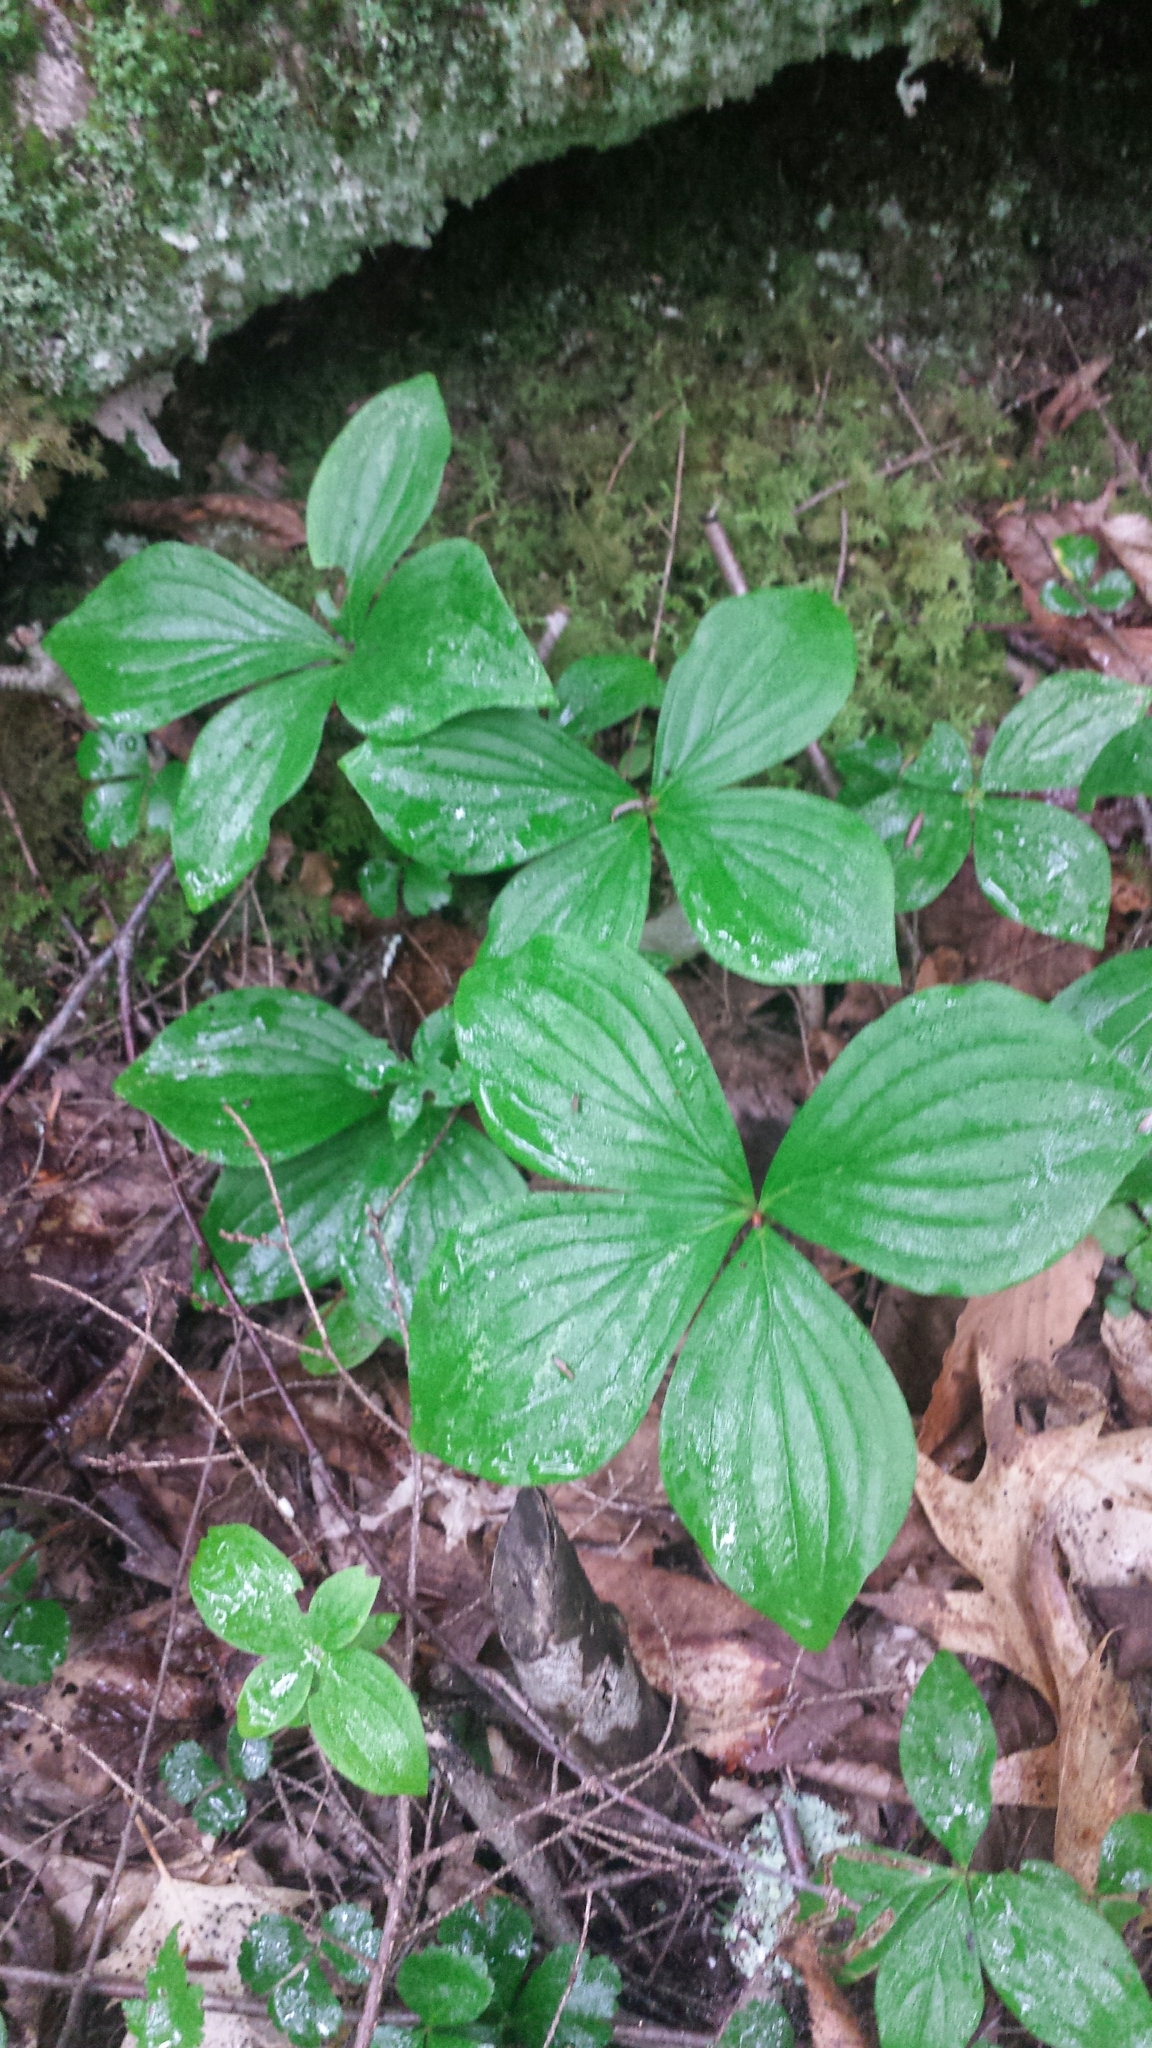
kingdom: Plantae
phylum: Tracheophyta
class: Magnoliopsida
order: Cornales
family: Cornaceae
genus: Cornus
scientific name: Cornus canadensis
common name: Creeping dogwood
